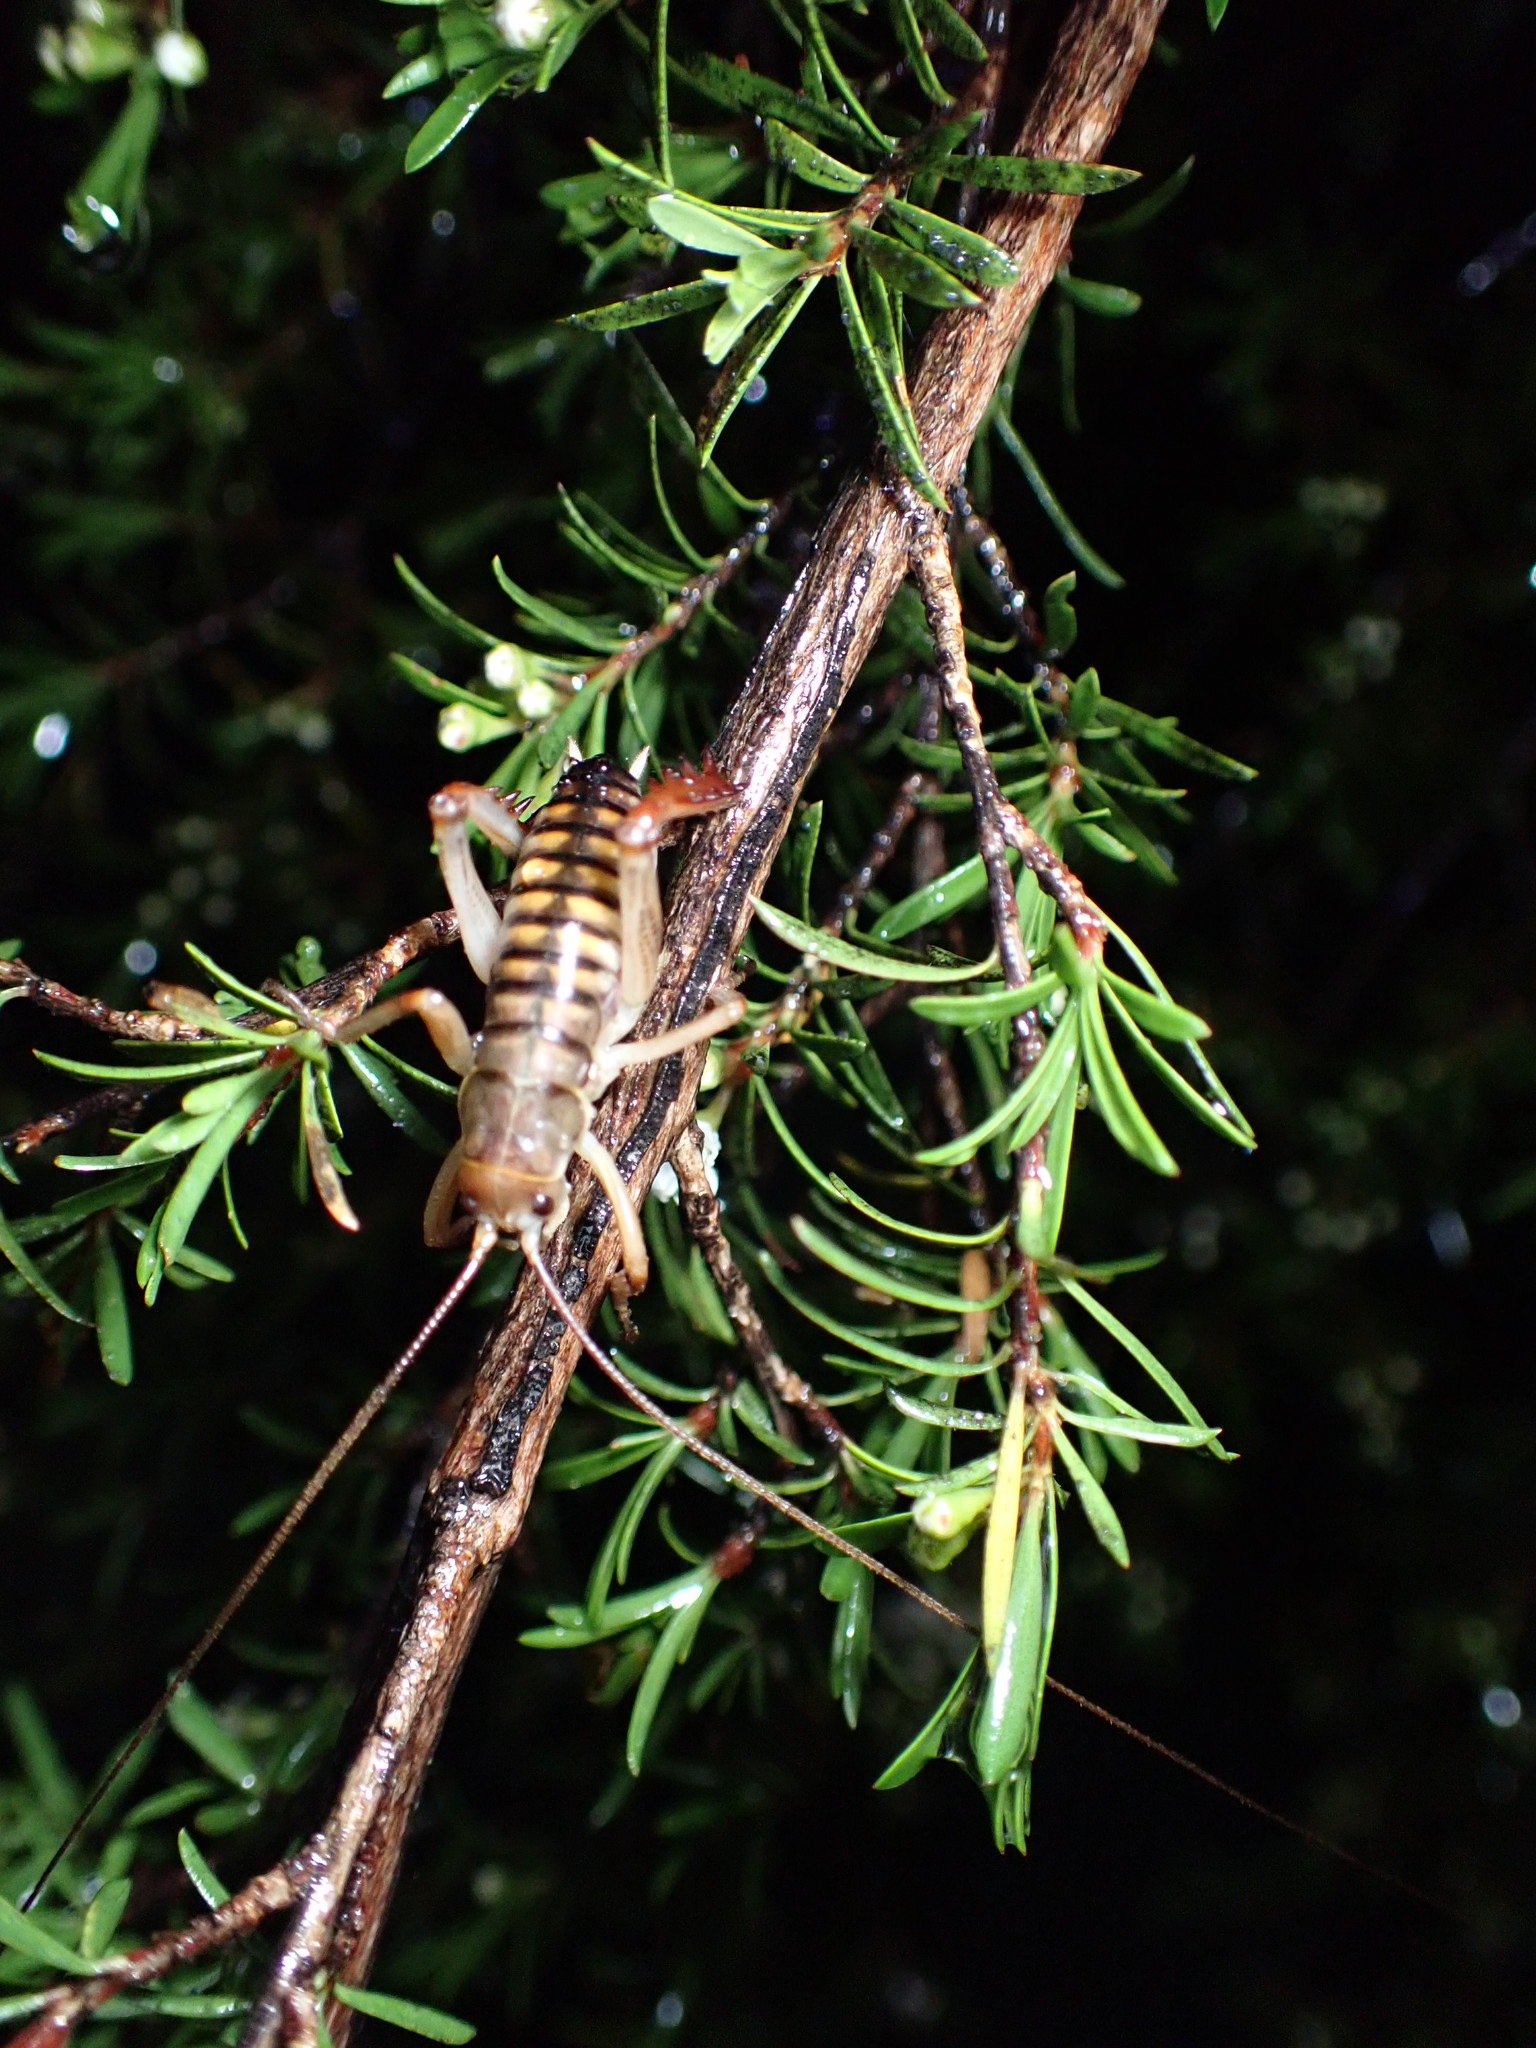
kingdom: Animalia
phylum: Arthropoda
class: Insecta
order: Orthoptera
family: Anostostomatidae
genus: Hemideina
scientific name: Hemideina crassidens
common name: Wellington tree weta
